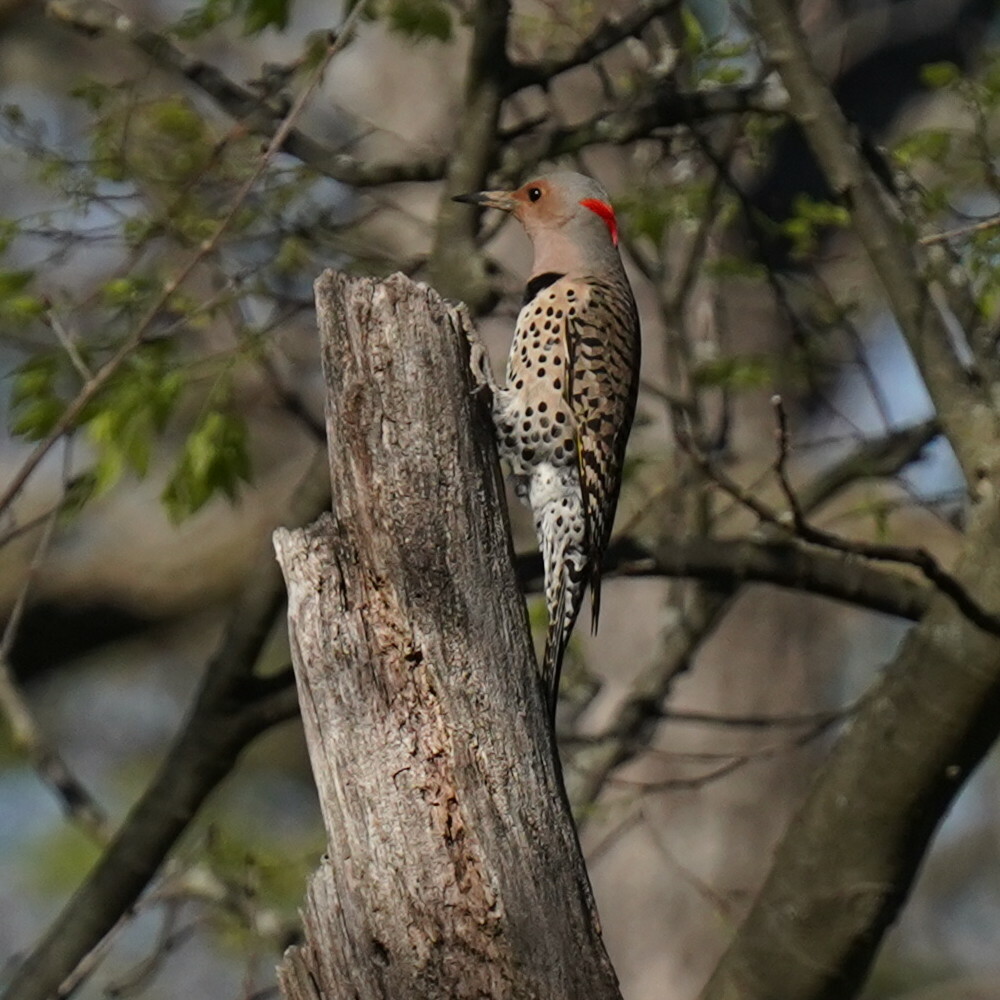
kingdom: Animalia
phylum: Chordata
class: Aves
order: Piciformes
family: Picidae
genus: Colaptes
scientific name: Colaptes auratus
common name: Northern flicker
